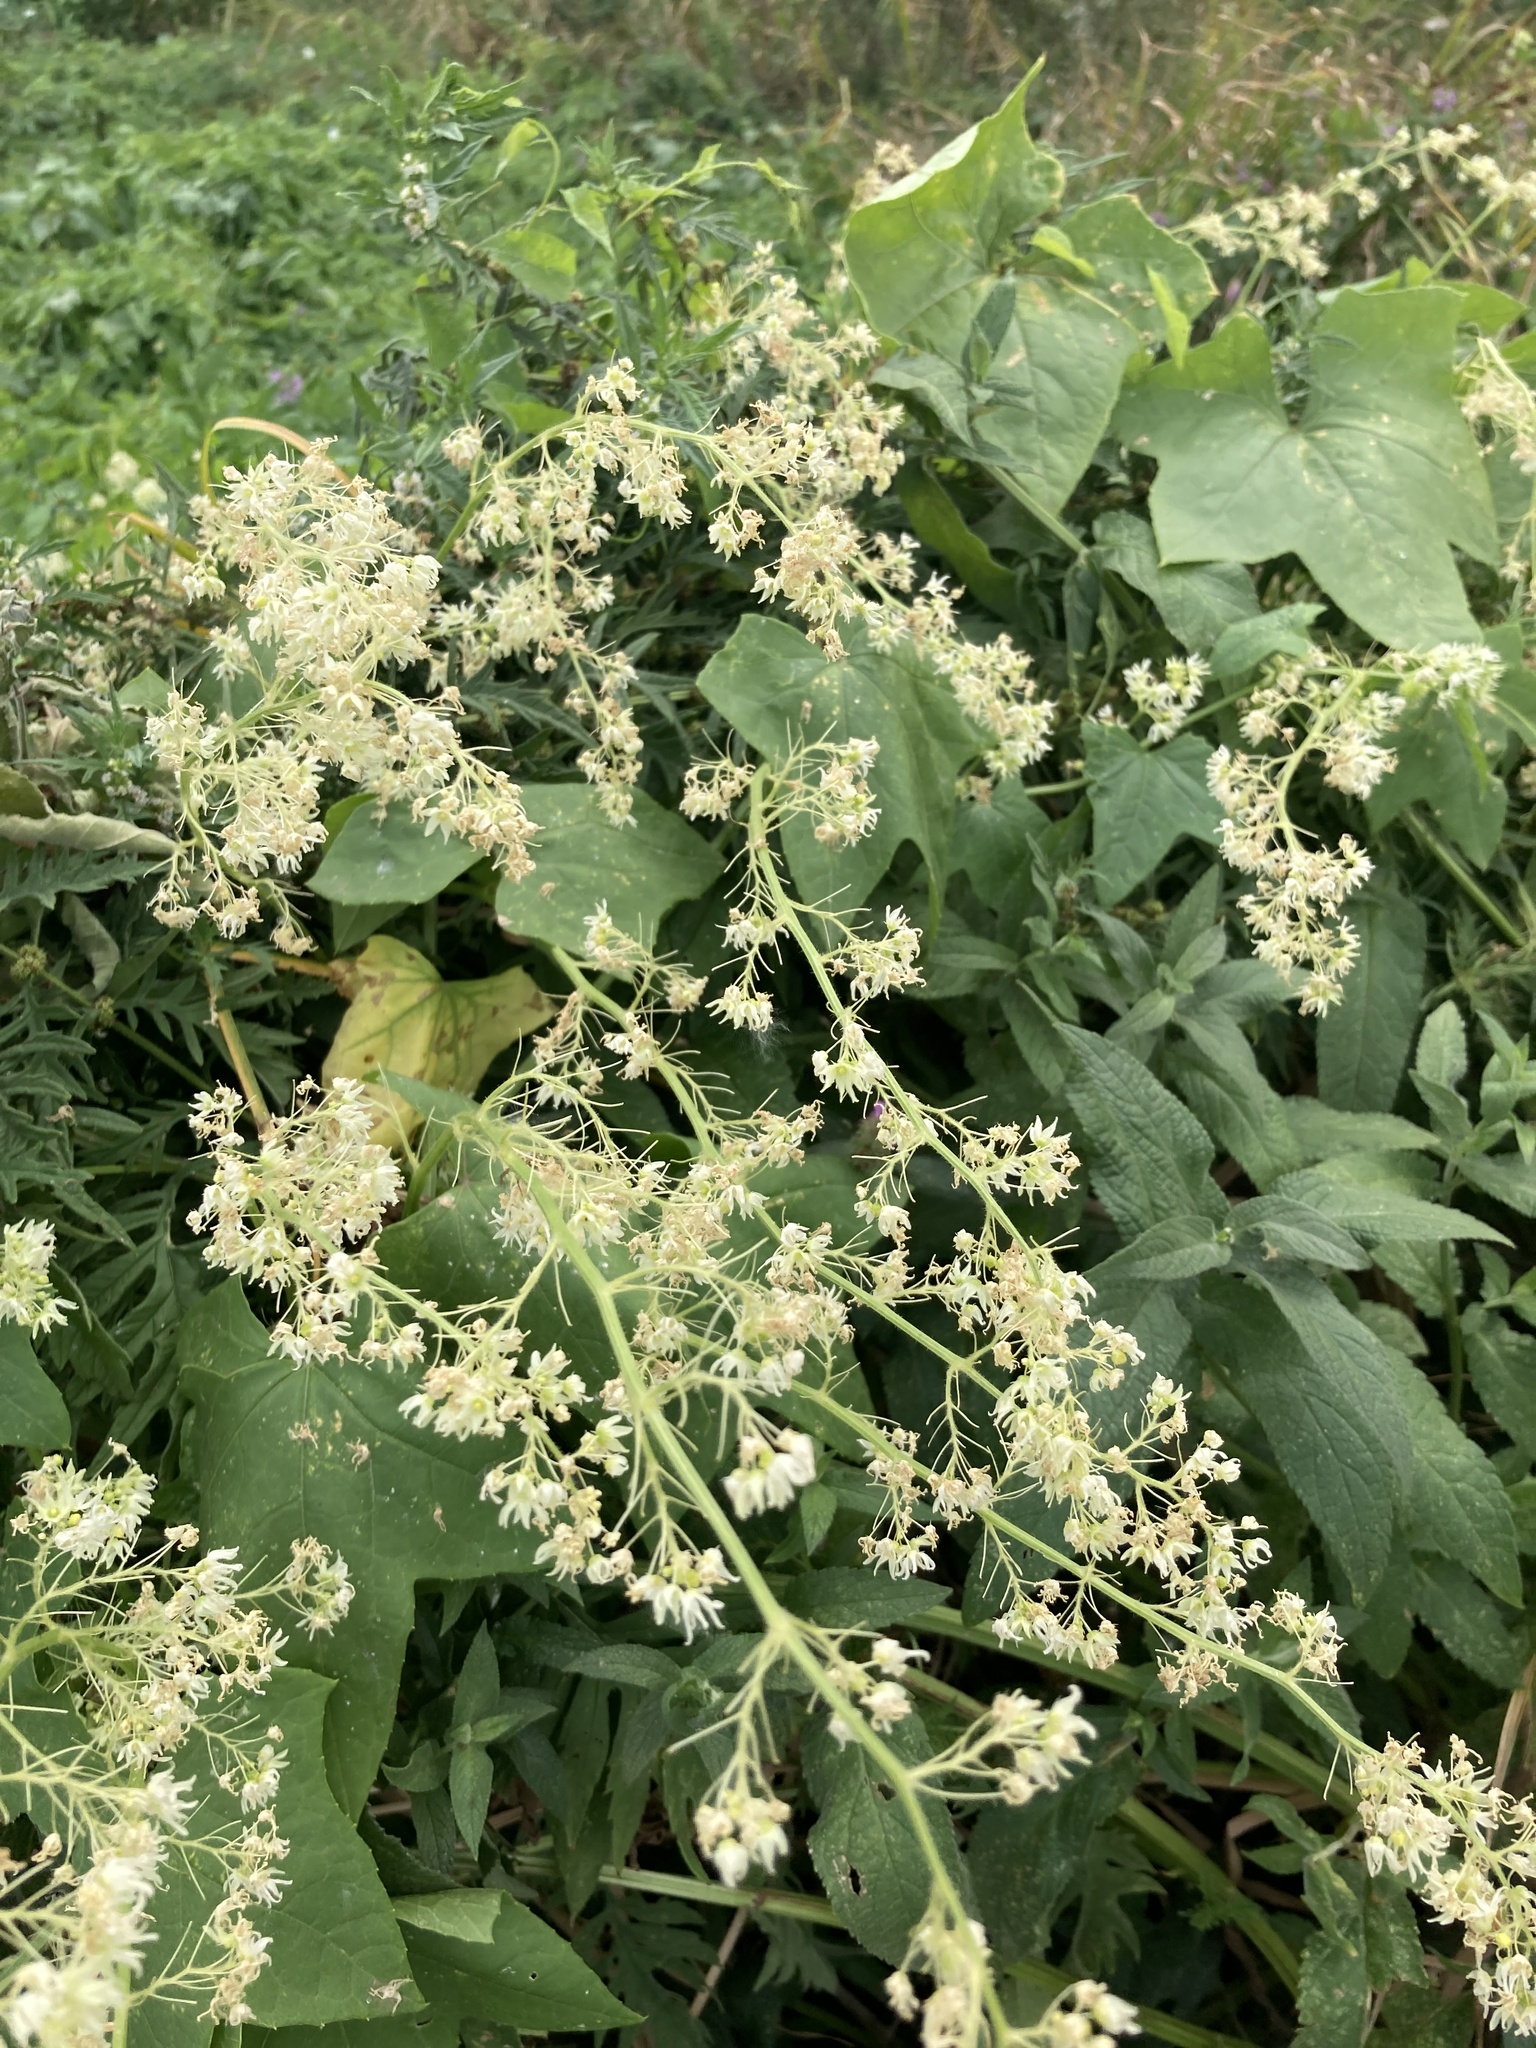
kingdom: Plantae
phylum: Tracheophyta
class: Magnoliopsida
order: Cucurbitales
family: Cucurbitaceae
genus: Echinocystis
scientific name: Echinocystis lobata
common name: Wild cucumber
